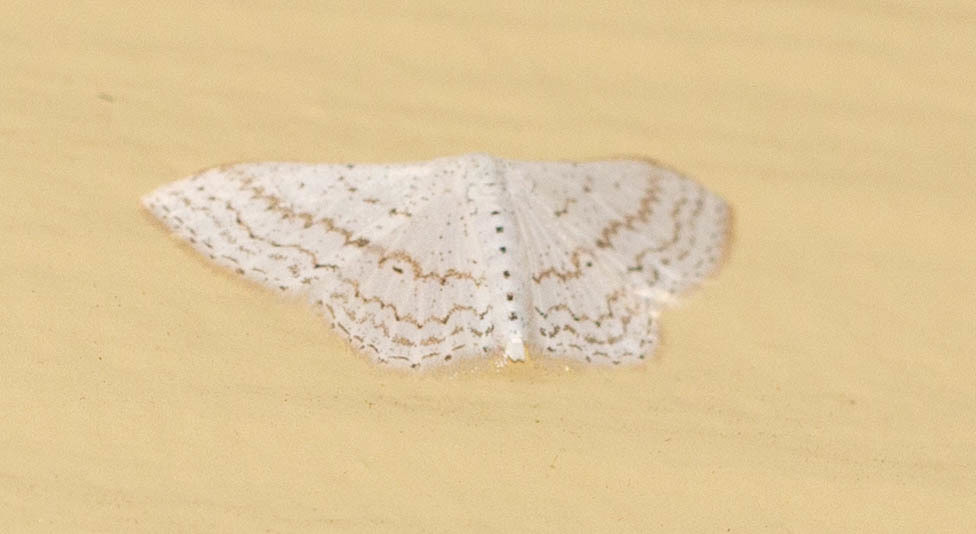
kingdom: Animalia
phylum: Arthropoda
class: Insecta
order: Lepidoptera
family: Geometridae
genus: Idaea
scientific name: Idaea tacturata
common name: Dot-lined wave
